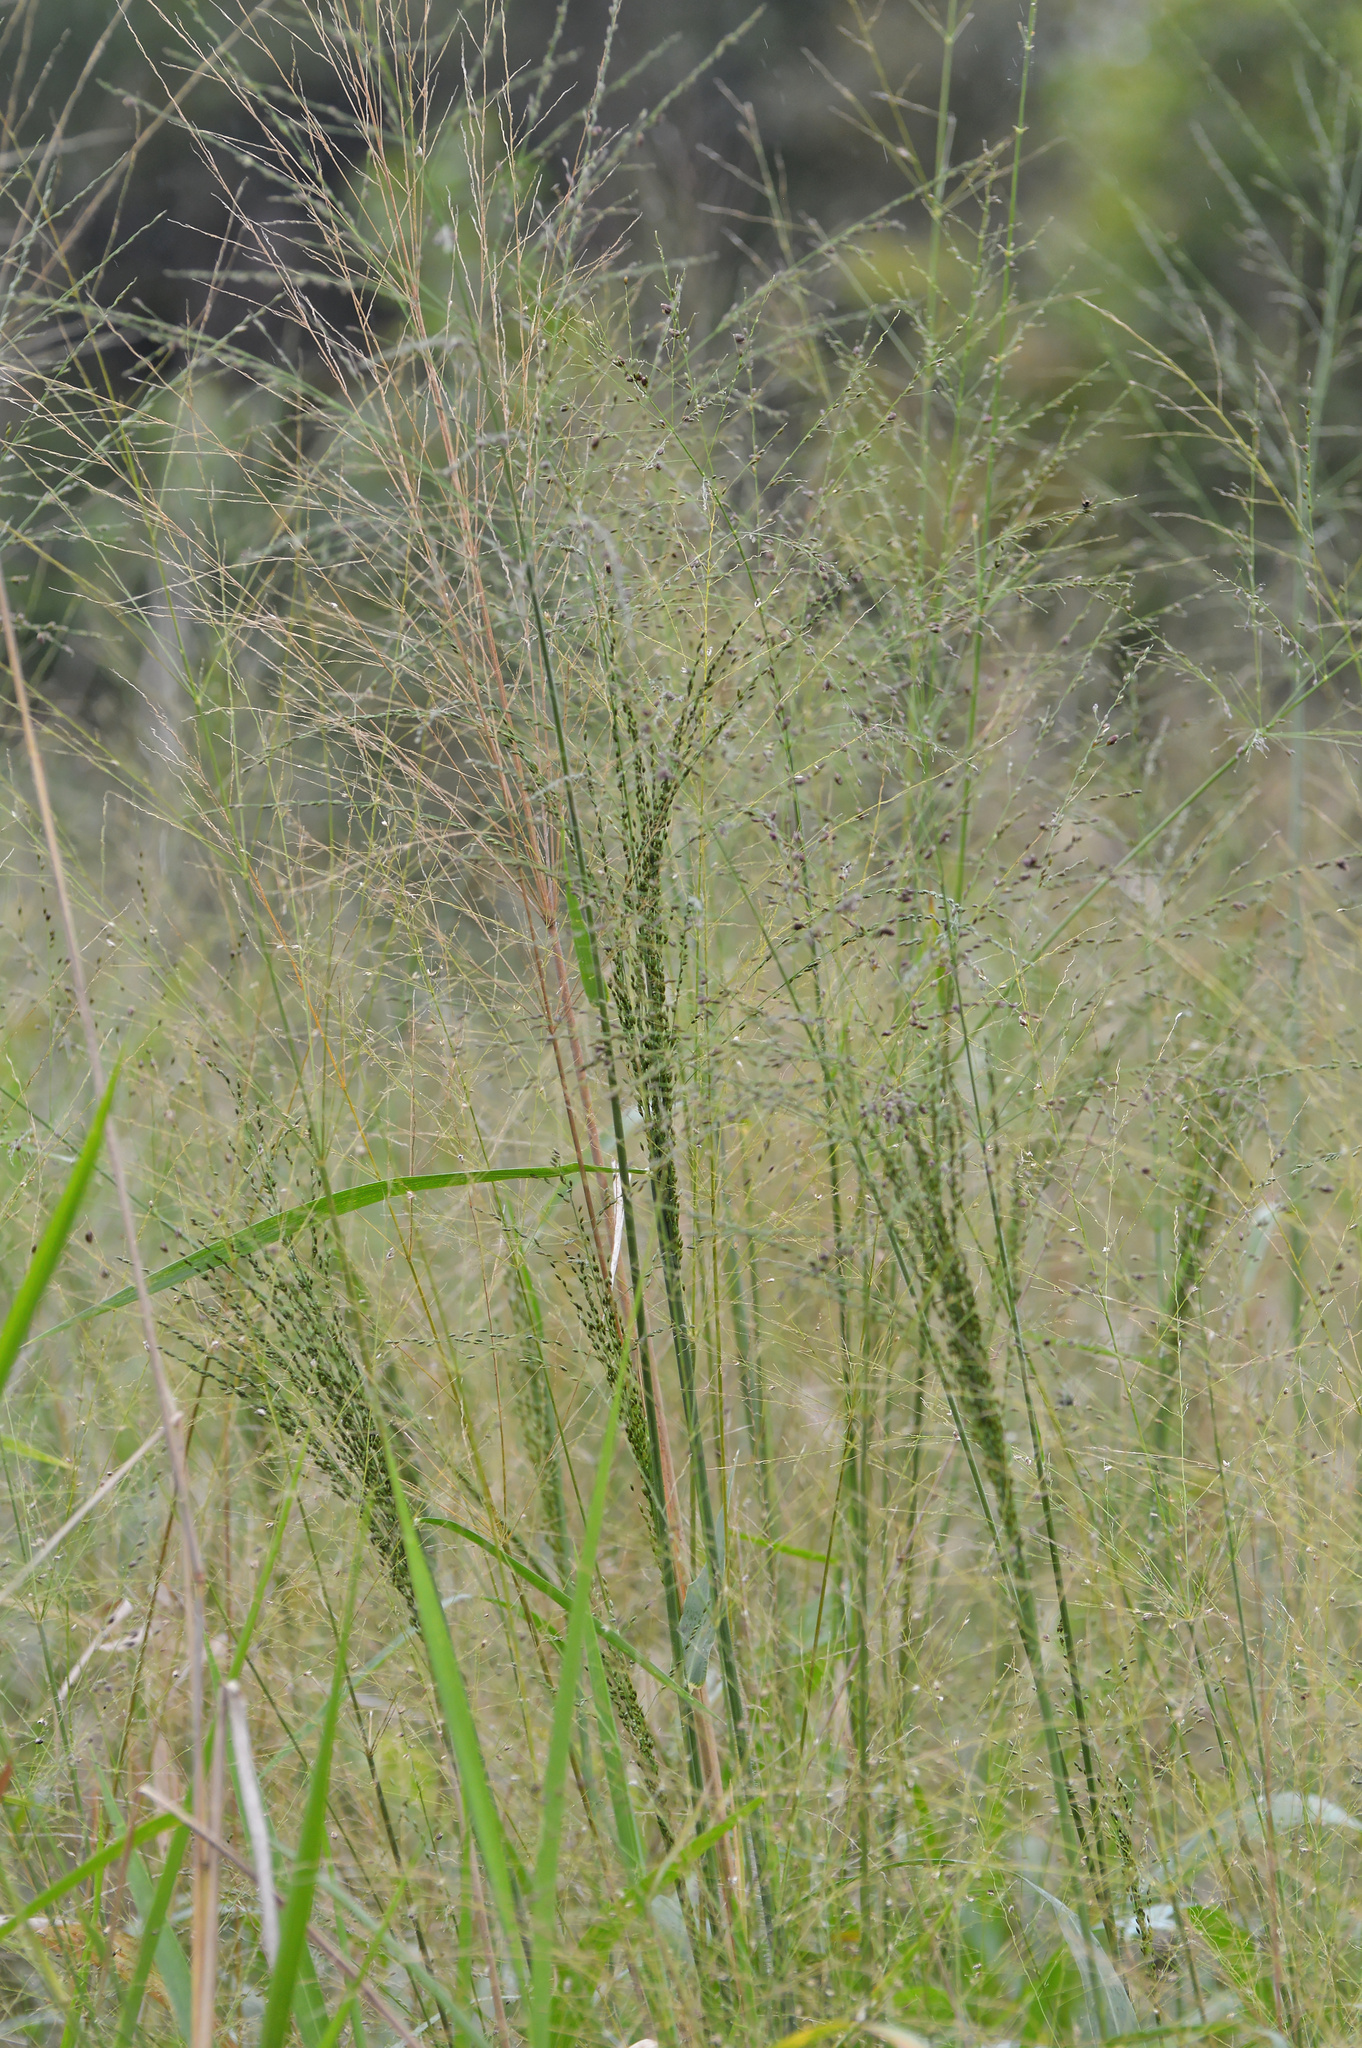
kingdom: Plantae
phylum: Tracheophyta
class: Liliopsida
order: Poales
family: Poaceae
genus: Megathyrsus
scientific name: Megathyrsus maximus
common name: Guineagrass
